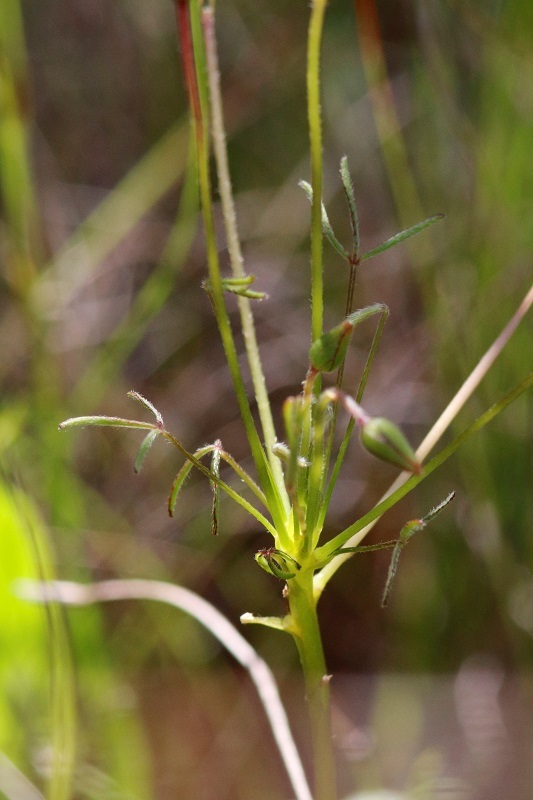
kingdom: Plantae
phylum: Tracheophyta
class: Magnoliopsida
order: Oxalidales
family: Oxalidaceae
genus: Oxalis
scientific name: Oxalis pendulifolia
